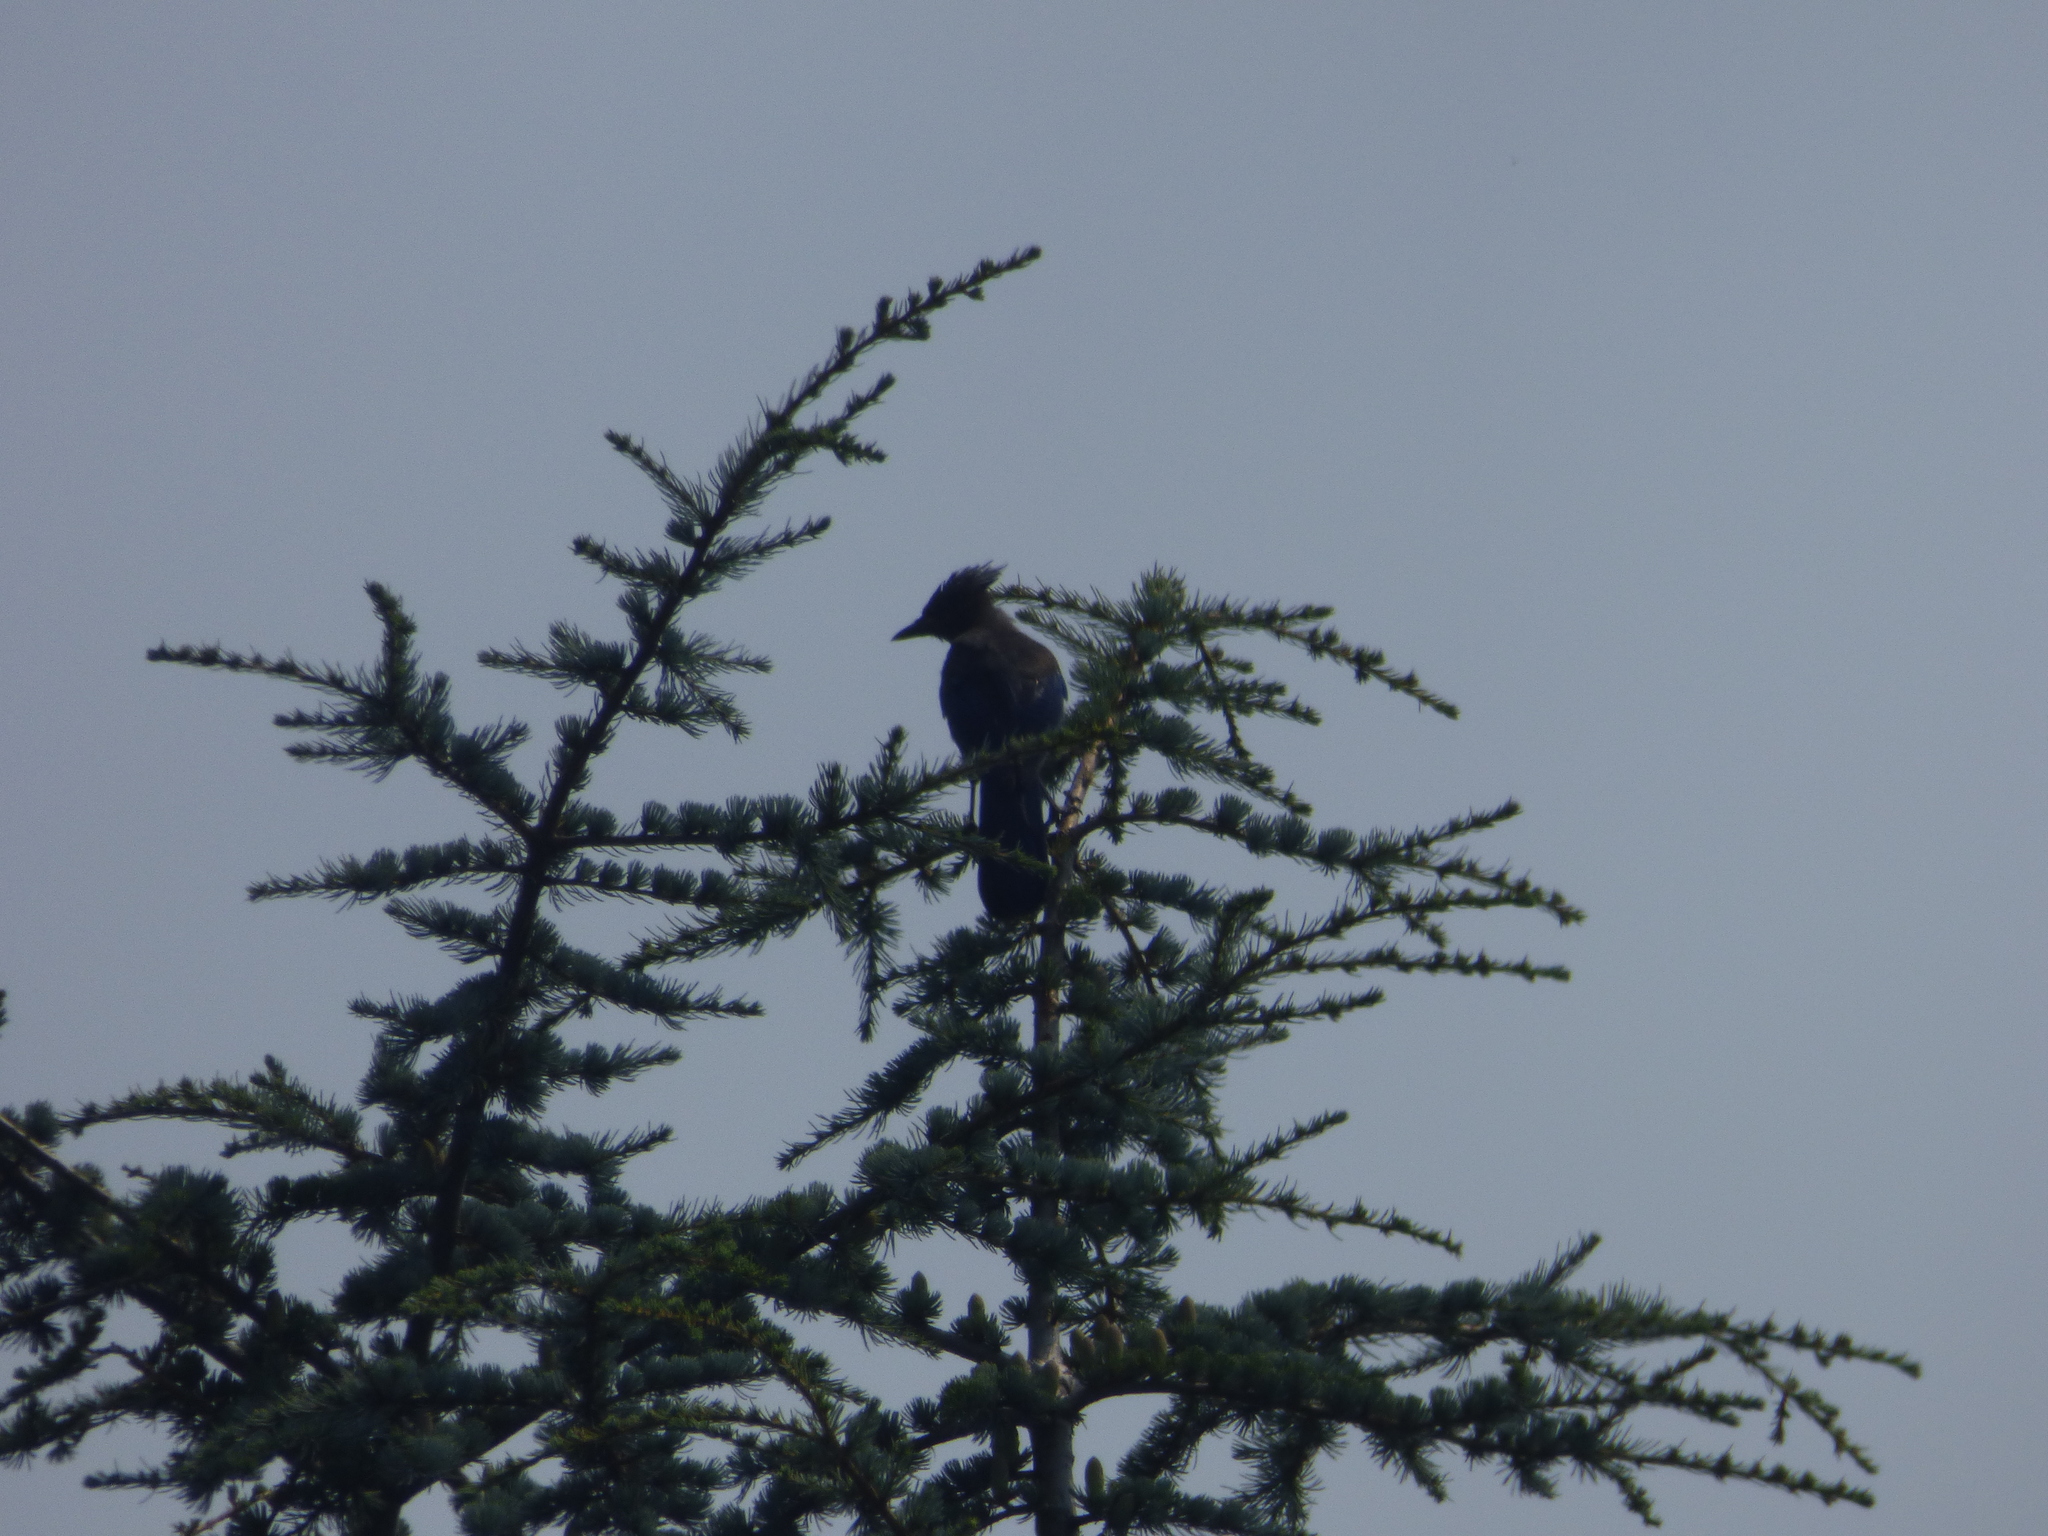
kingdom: Animalia
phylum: Chordata
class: Aves
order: Passeriformes
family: Corvidae
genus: Cyanocitta
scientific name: Cyanocitta stelleri
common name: Steller's jay
